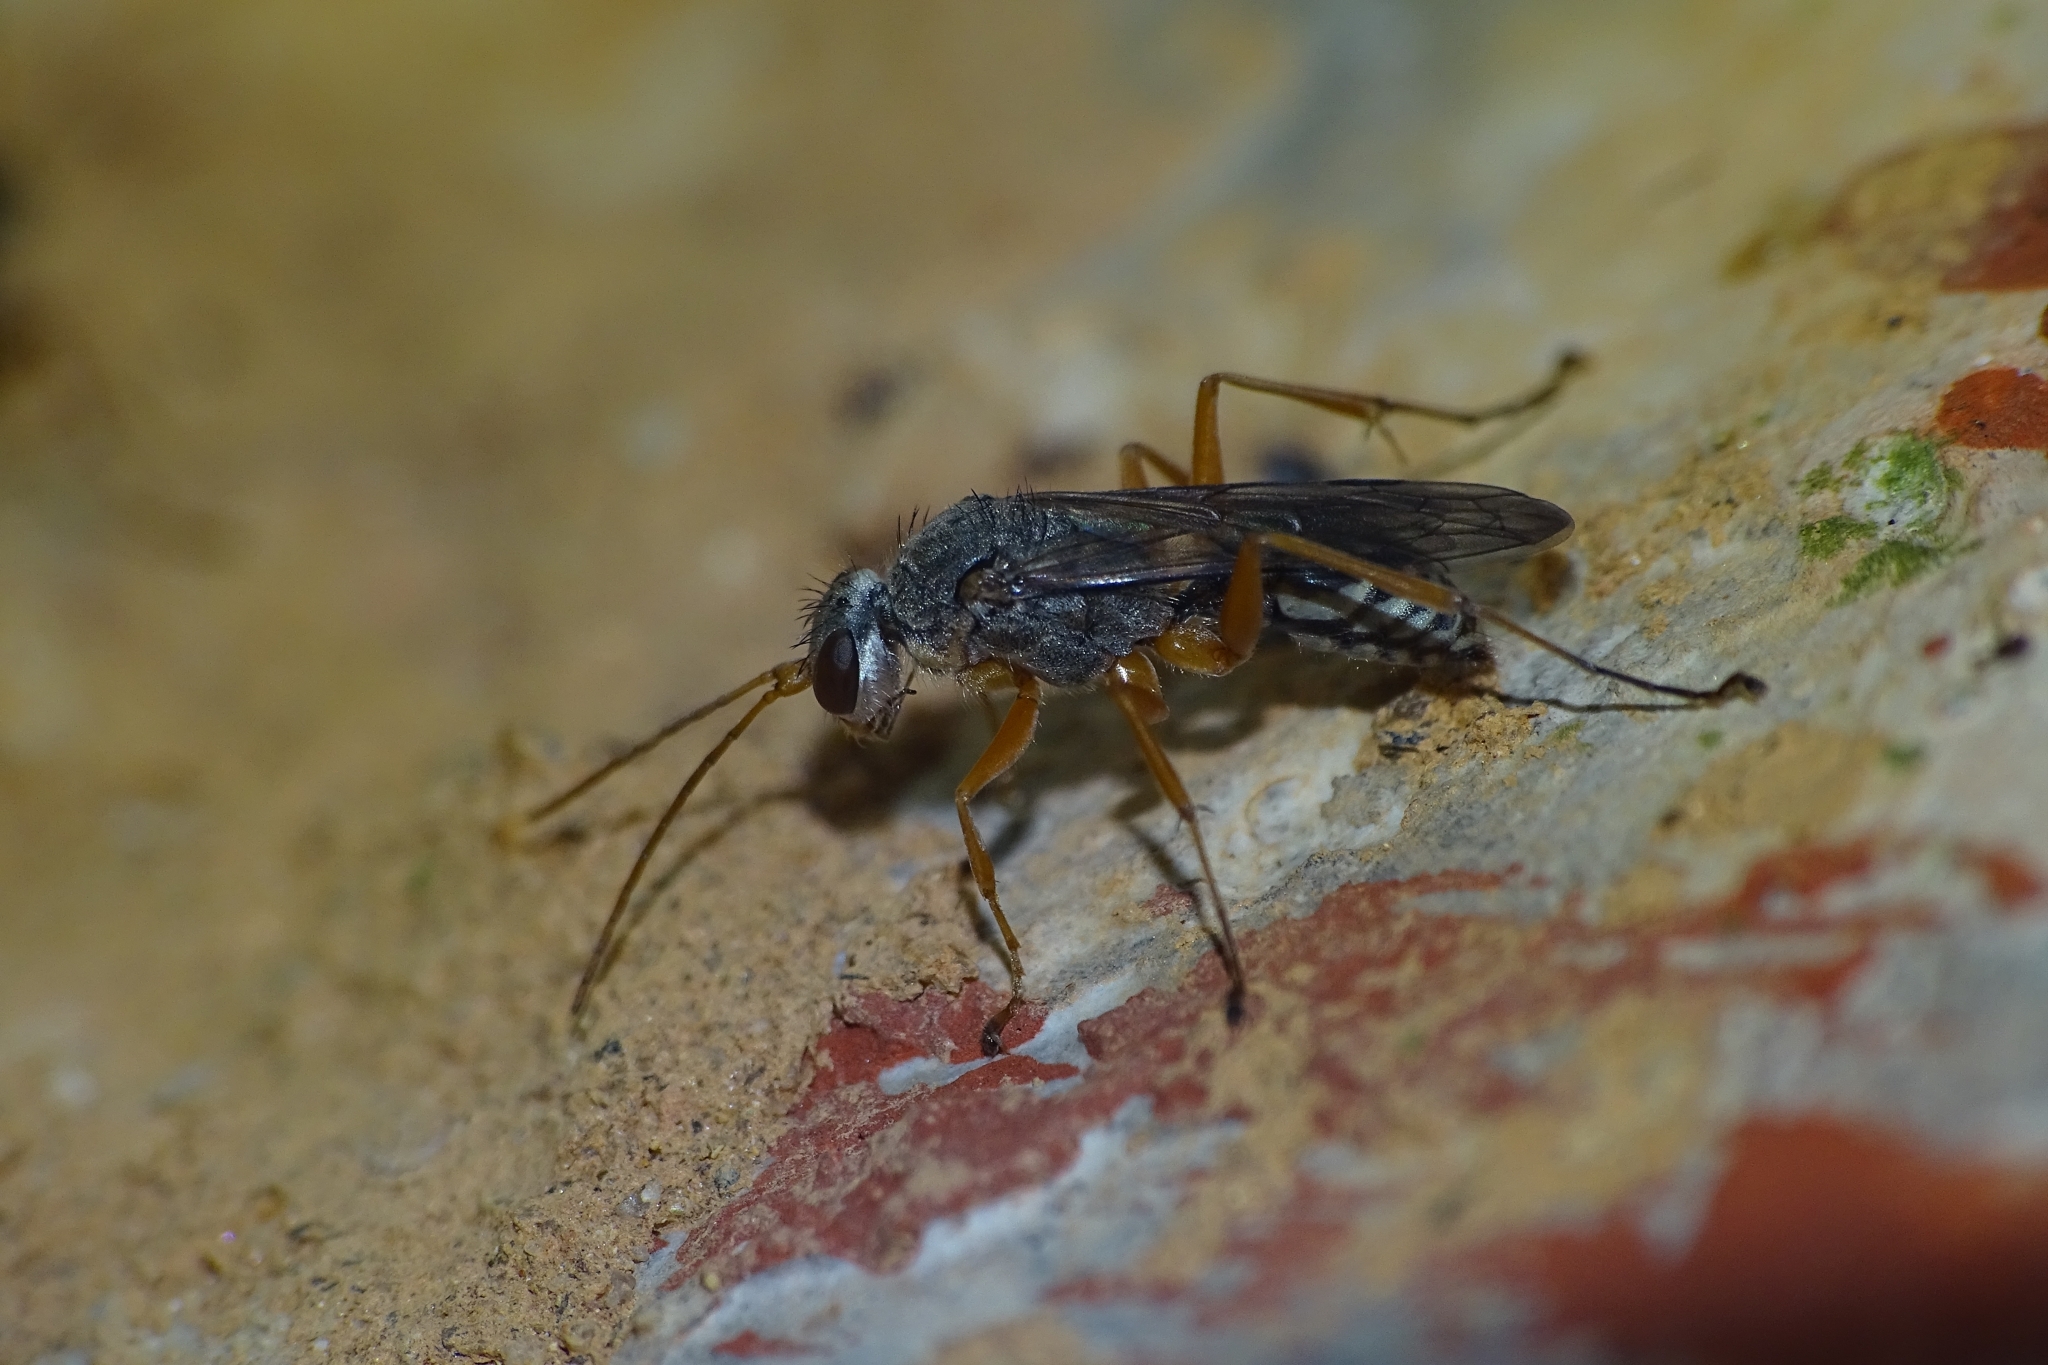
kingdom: Animalia
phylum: Arthropoda
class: Insecta
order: Hymenoptera
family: Pompilidae
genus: Machaerothrix
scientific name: Machaerothrix salticidus
